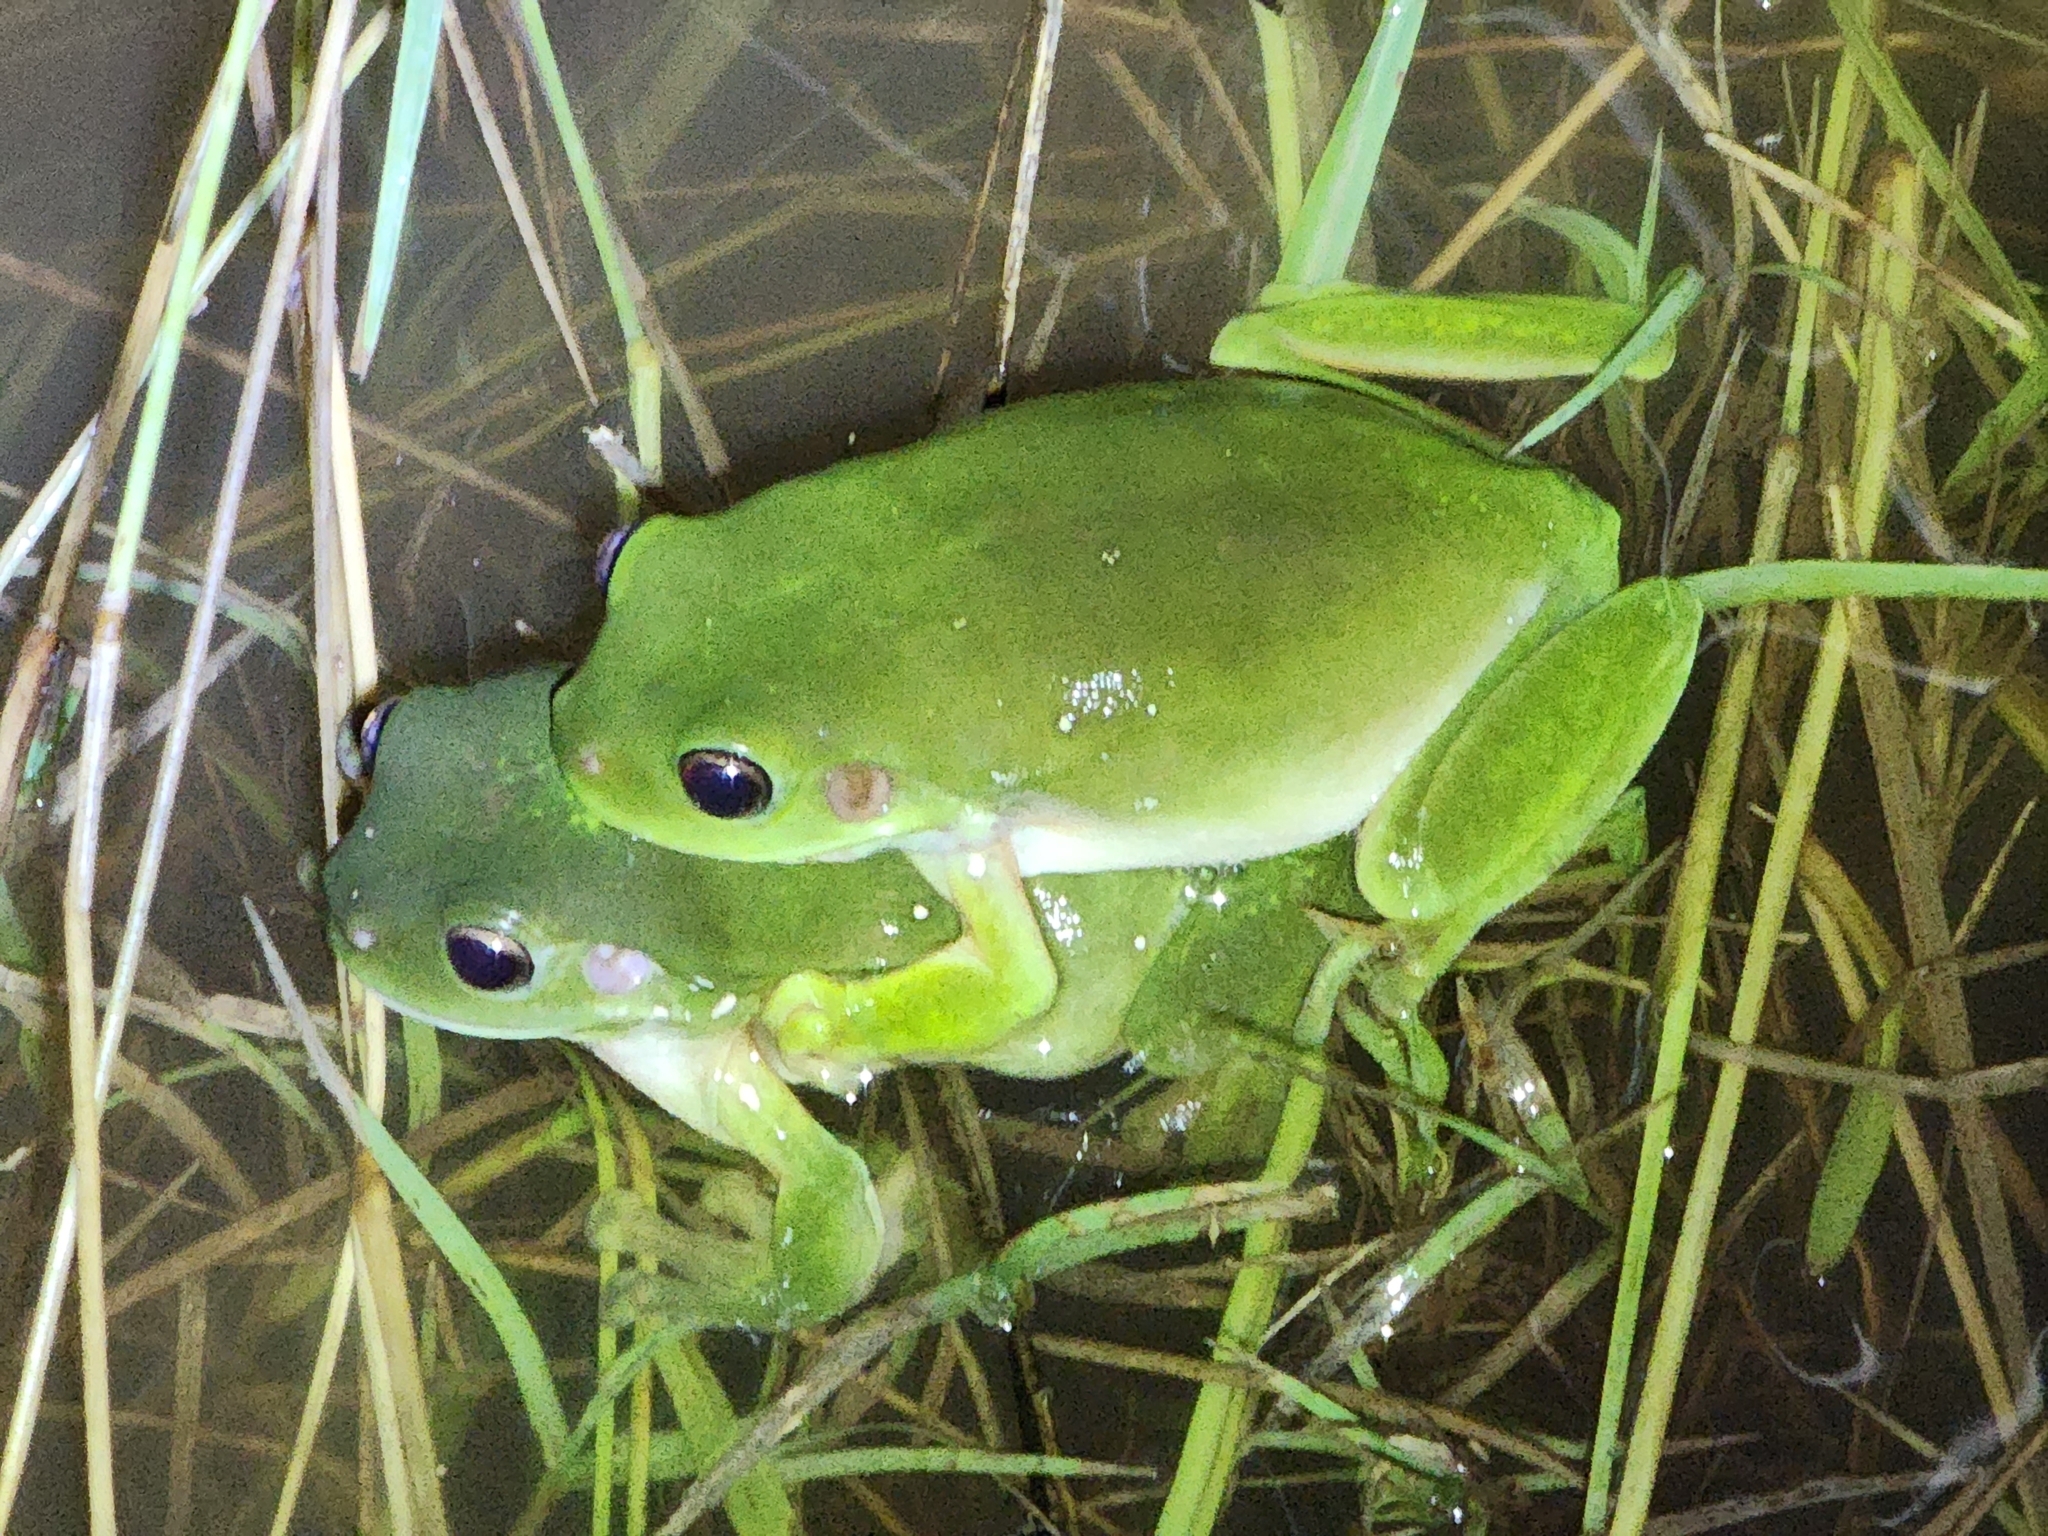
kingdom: Animalia
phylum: Chordata
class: Amphibia
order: Anura
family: Pelodryadidae
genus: Ranoidea
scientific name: Ranoidea caerulea
